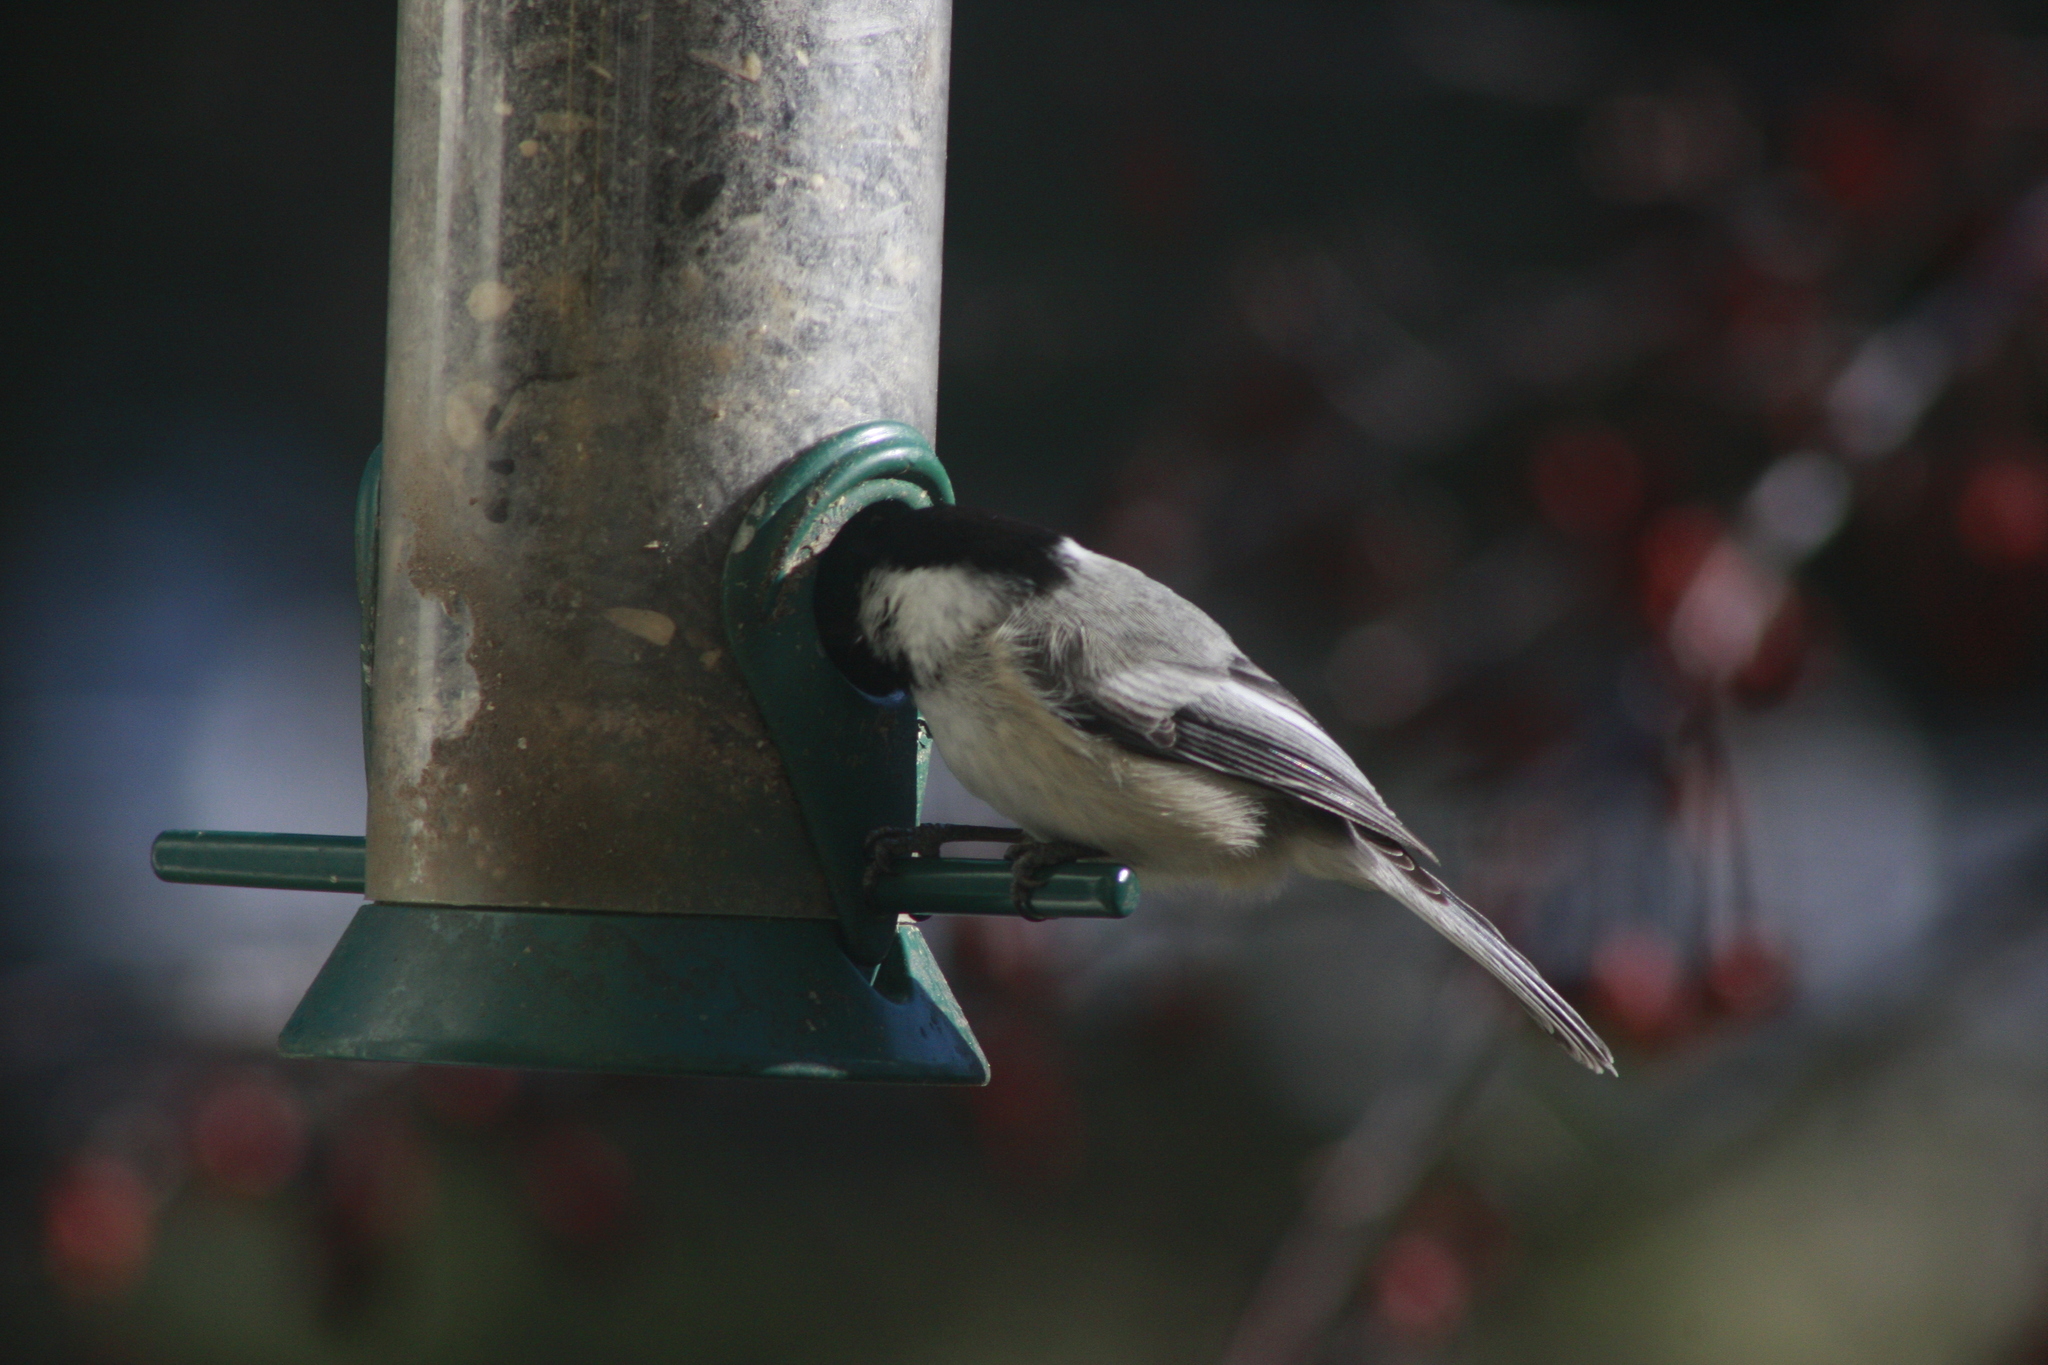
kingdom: Animalia
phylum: Chordata
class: Aves
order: Passeriformes
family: Paridae
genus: Poecile
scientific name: Poecile atricapillus
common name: Black-capped chickadee
